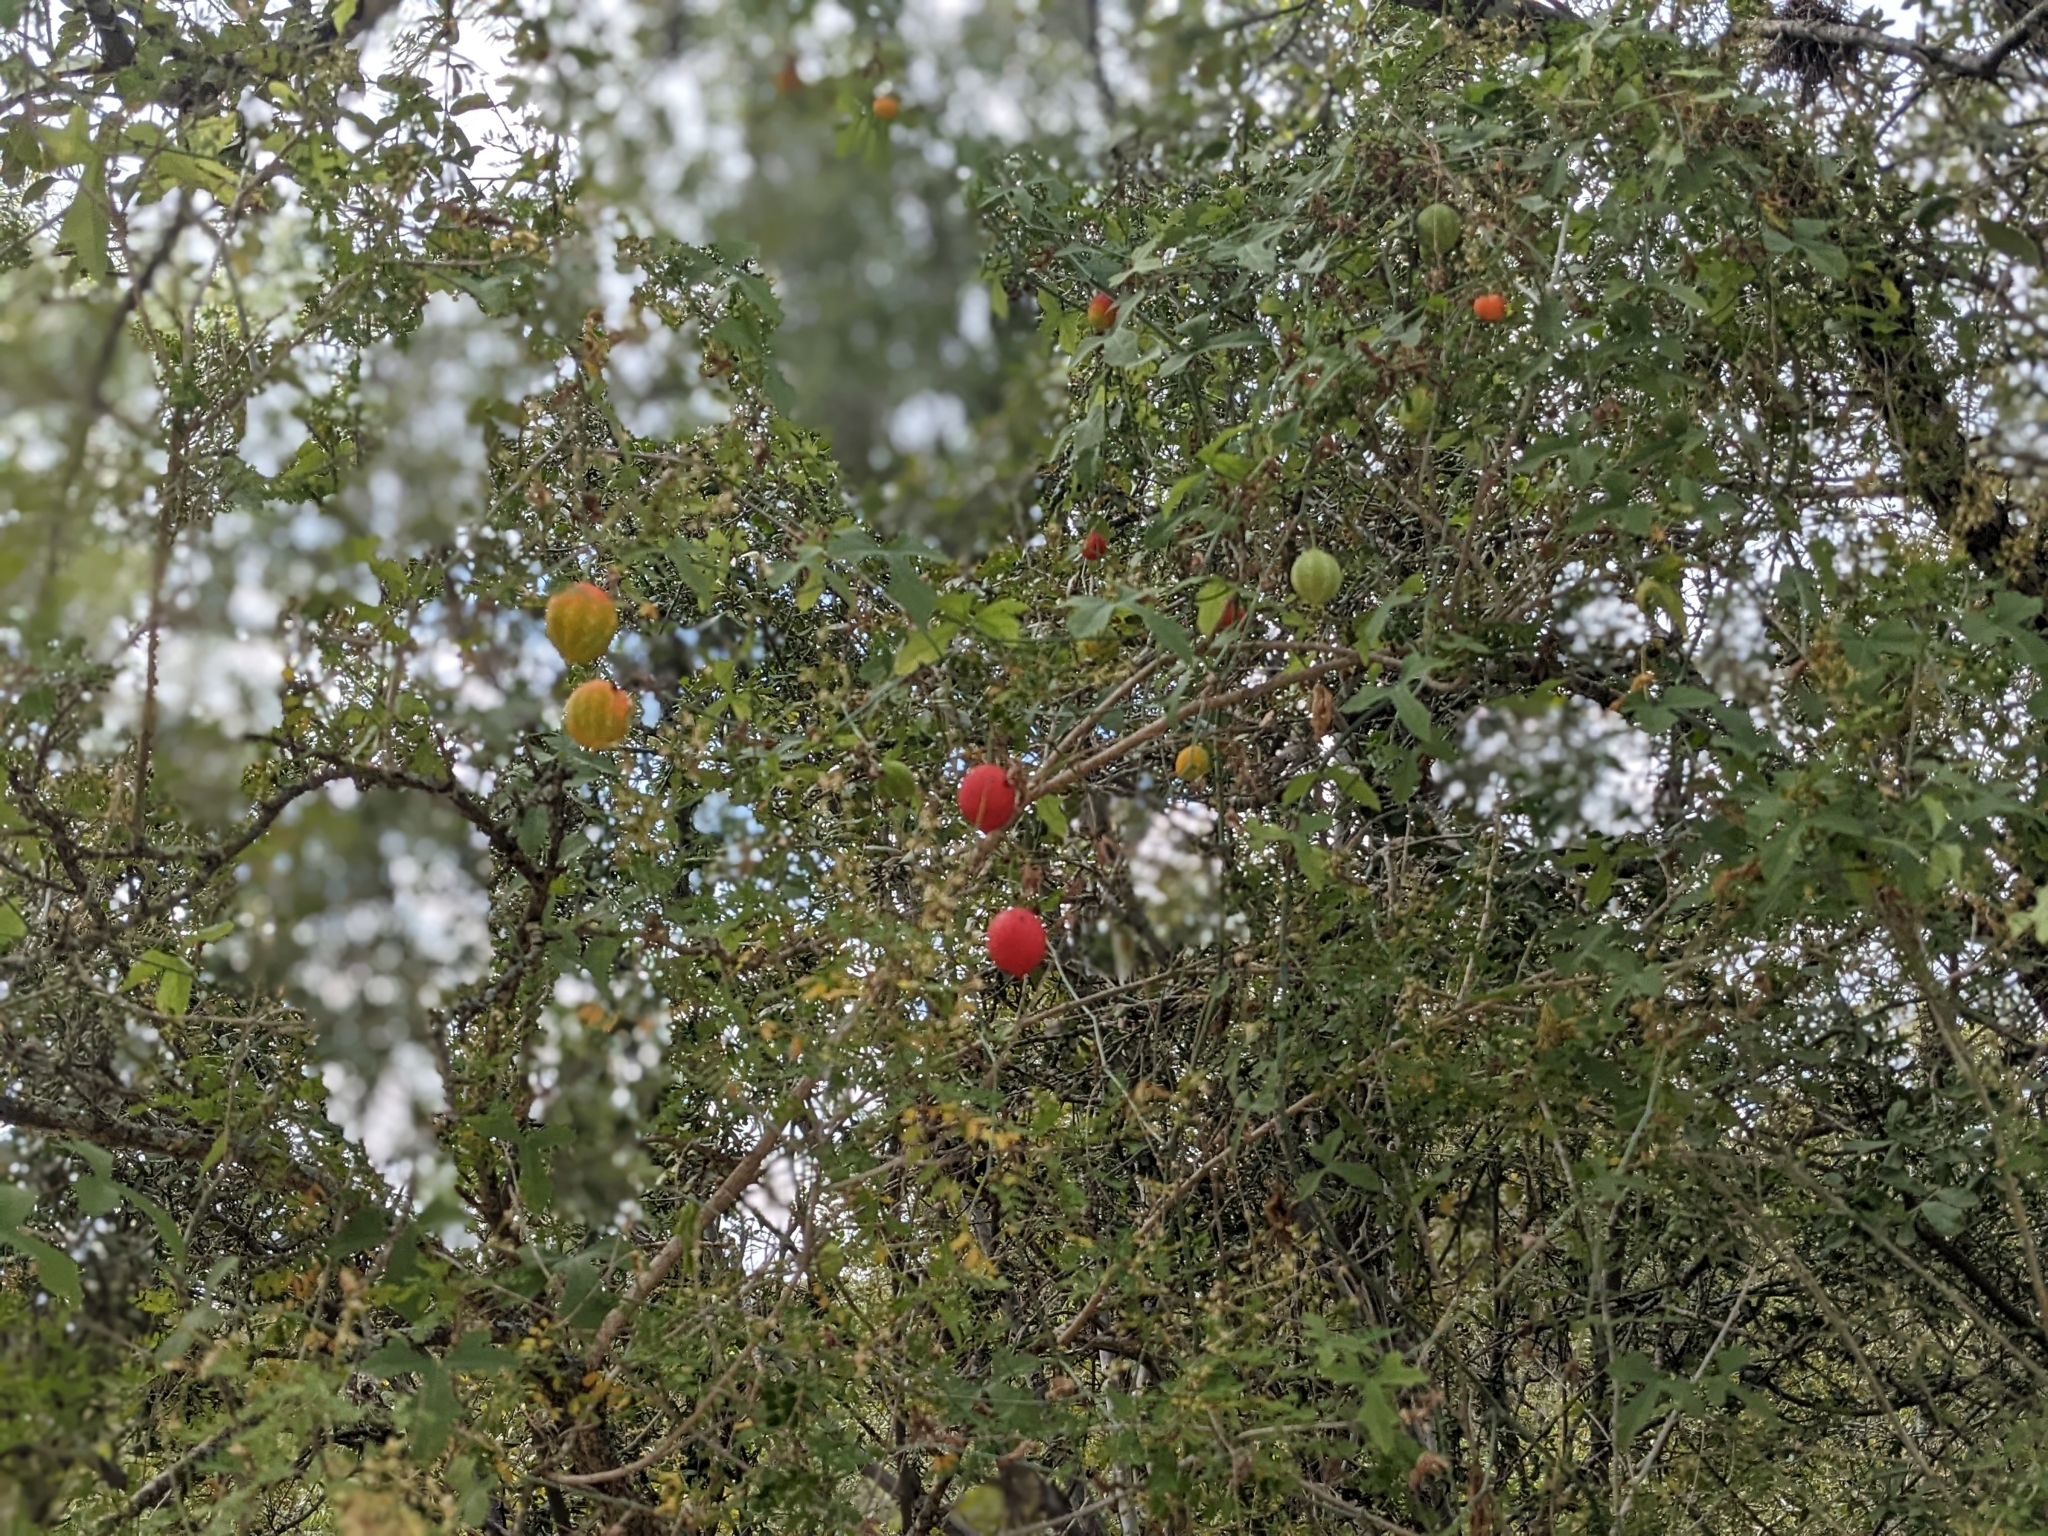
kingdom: Plantae
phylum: Tracheophyta
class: Magnoliopsida
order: Cucurbitales
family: Cucurbitaceae
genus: Ibervillea
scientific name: Ibervillea lindheimeri
